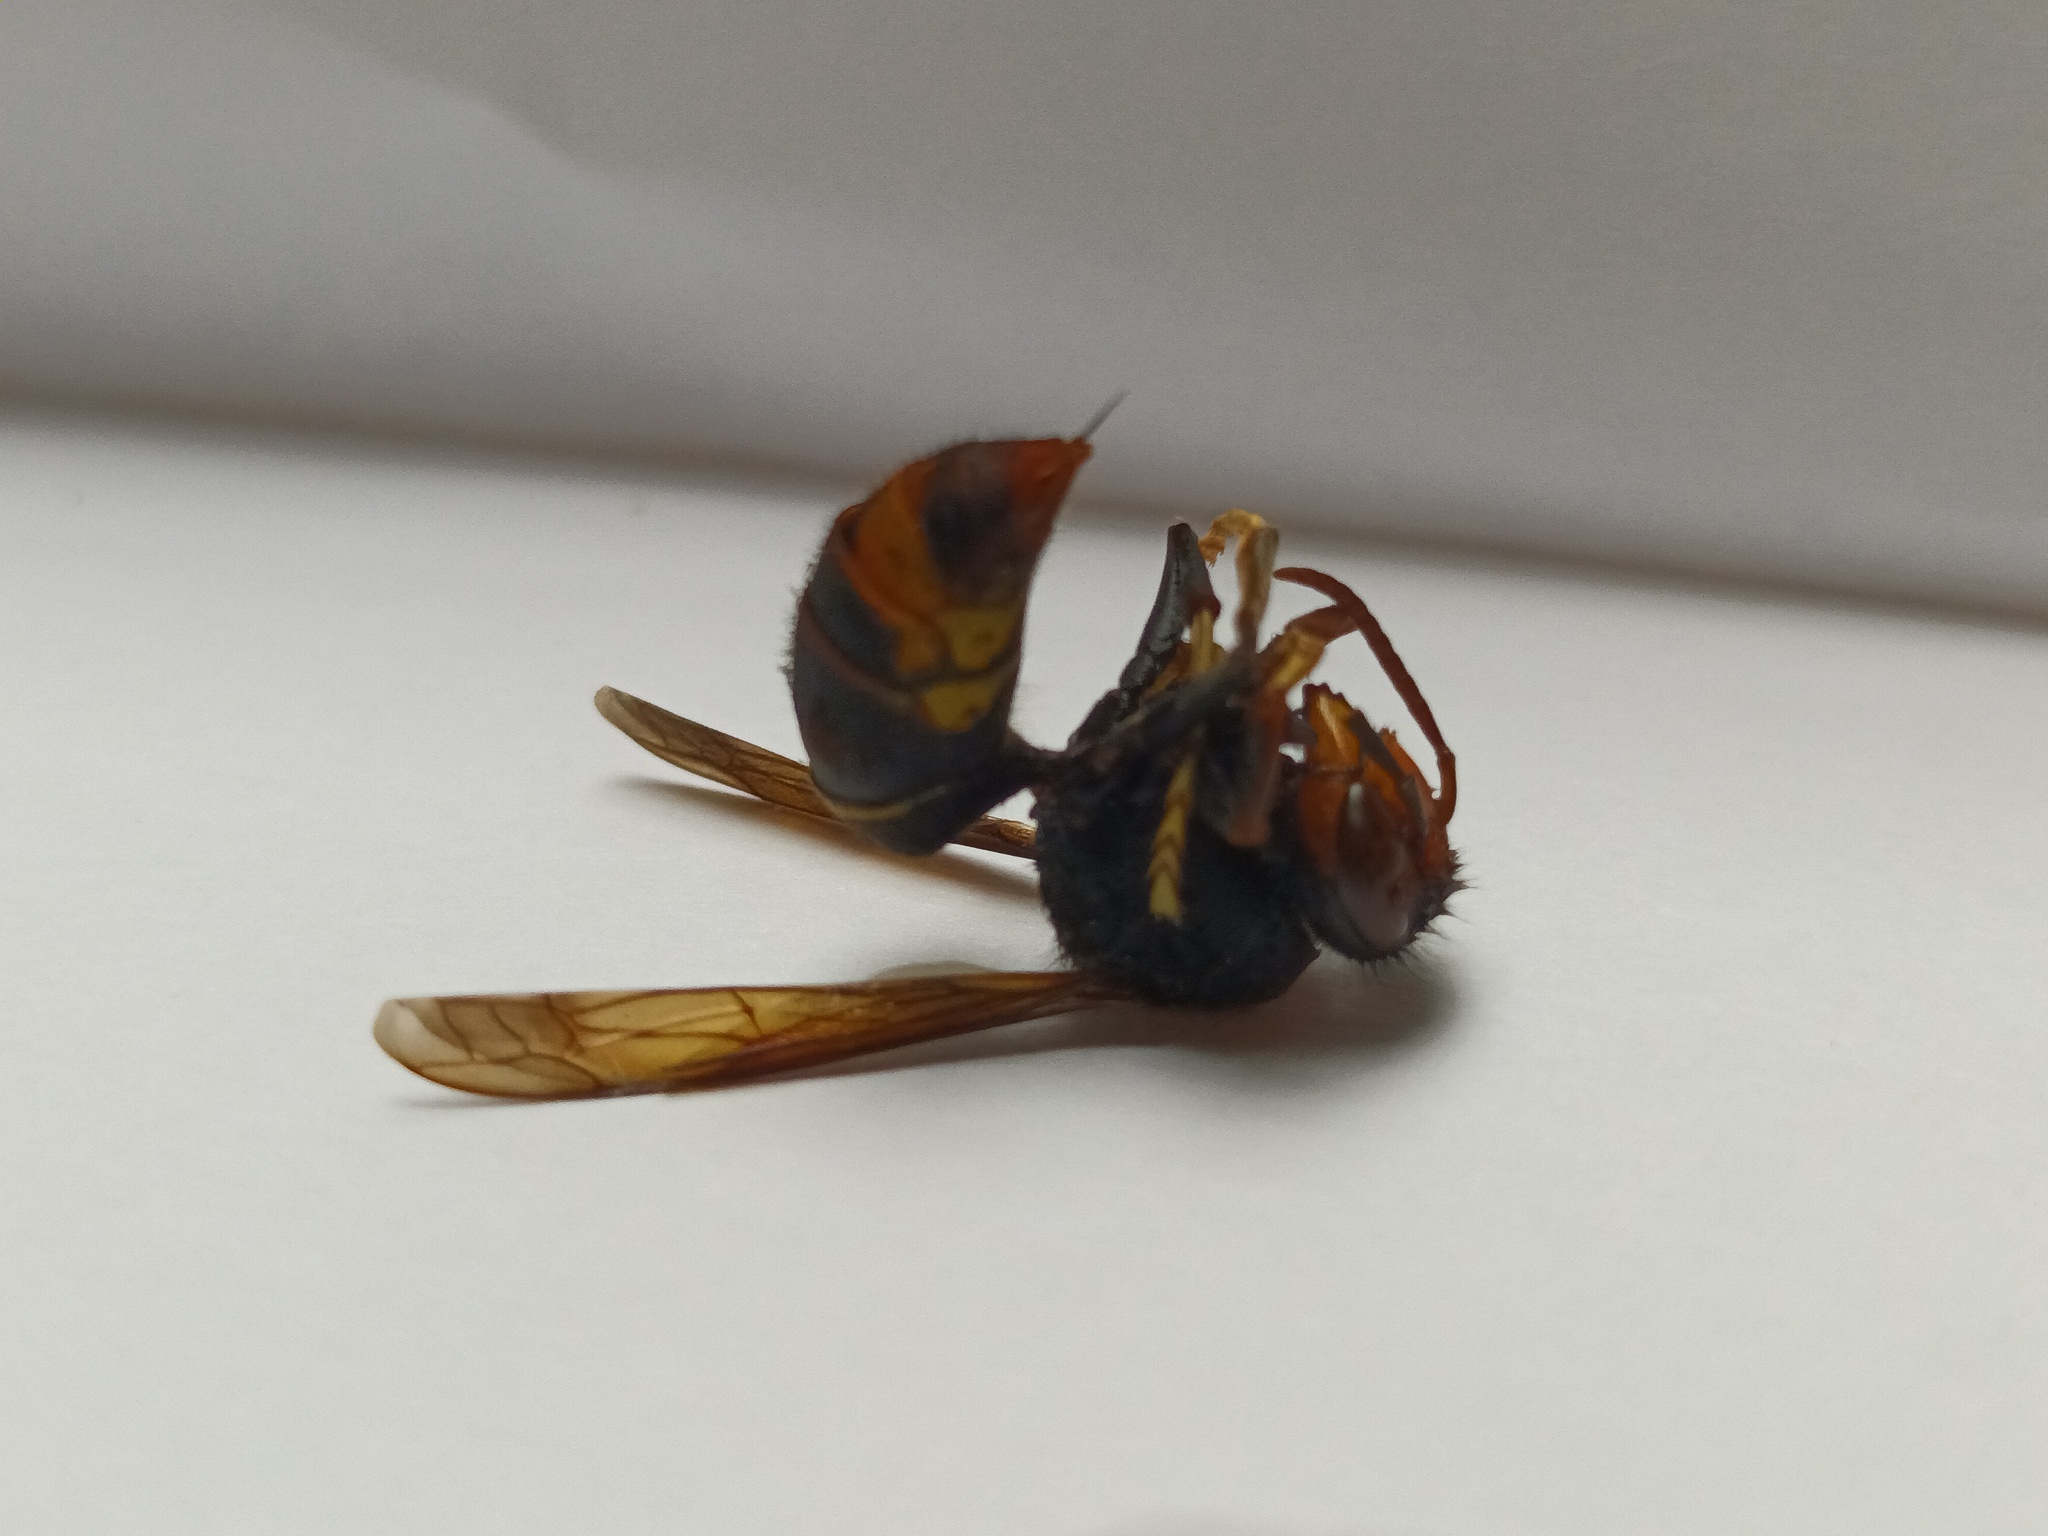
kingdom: Animalia
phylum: Arthropoda
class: Insecta
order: Hymenoptera
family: Vespidae
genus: Vespa
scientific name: Vespa velutina
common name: Asian hornet
